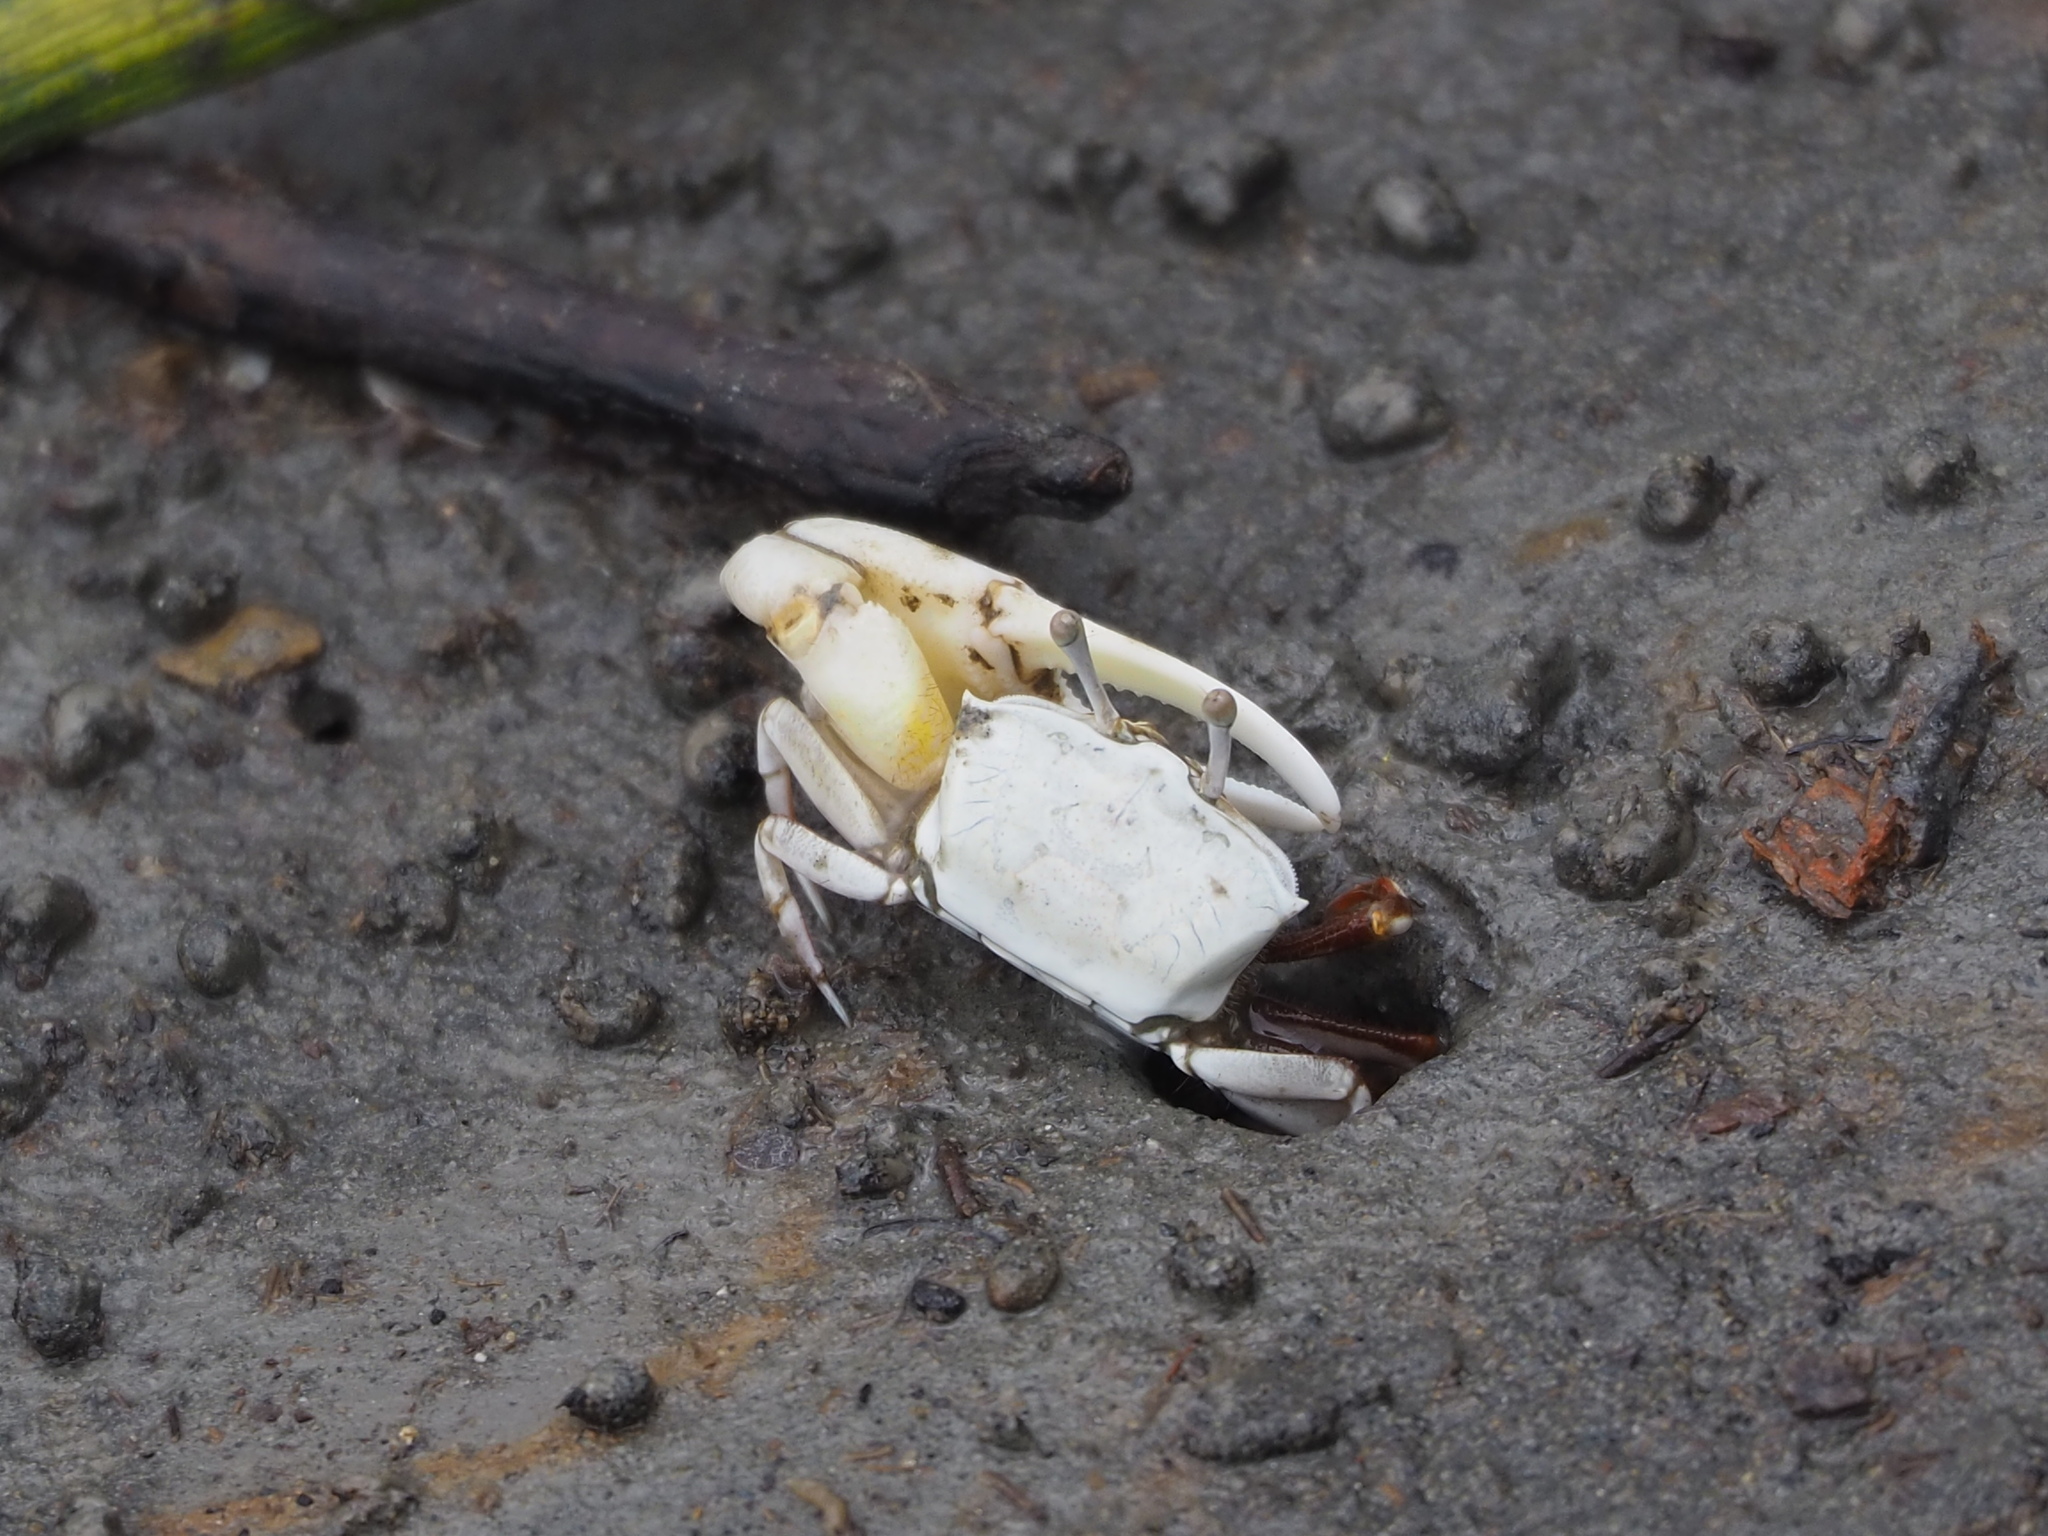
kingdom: Animalia
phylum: Arthropoda
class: Malacostraca
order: Decapoda
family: Ocypodidae
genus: Austruca
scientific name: Austruca lactea
